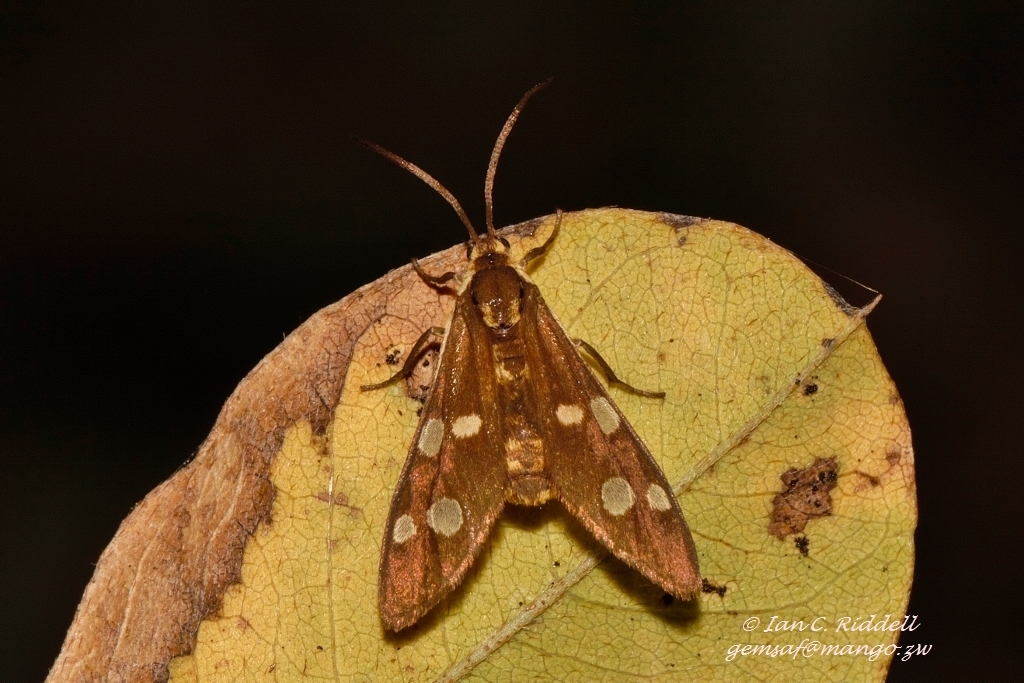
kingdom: Animalia
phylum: Arthropoda
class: Insecta
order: Lepidoptera
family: Erebidae
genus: Pseudonaclia
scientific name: Pseudonaclia puella
